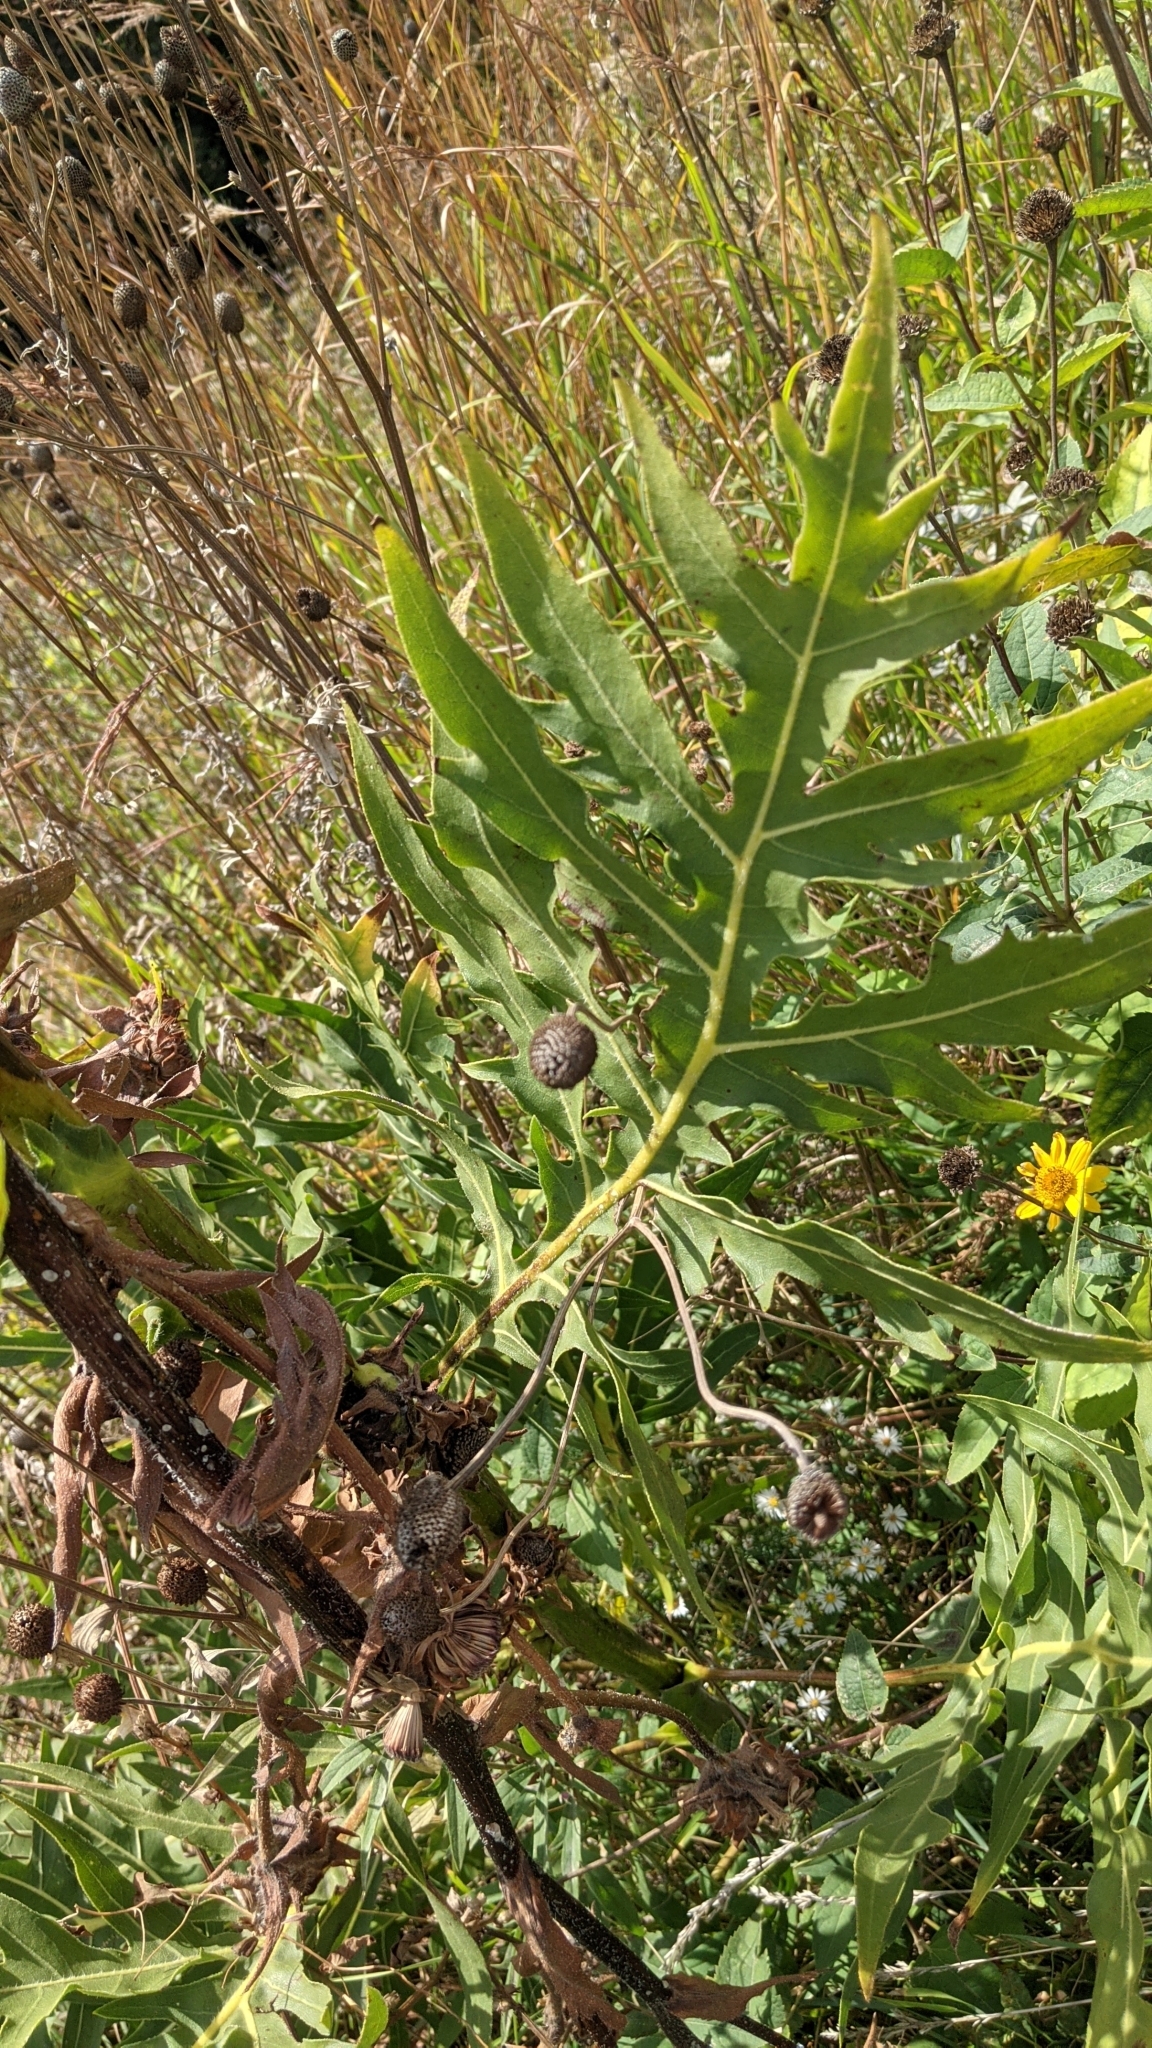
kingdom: Plantae
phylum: Tracheophyta
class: Magnoliopsida
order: Asterales
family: Asteraceae
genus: Silphium
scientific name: Silphium laciniatum
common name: Polarplant
